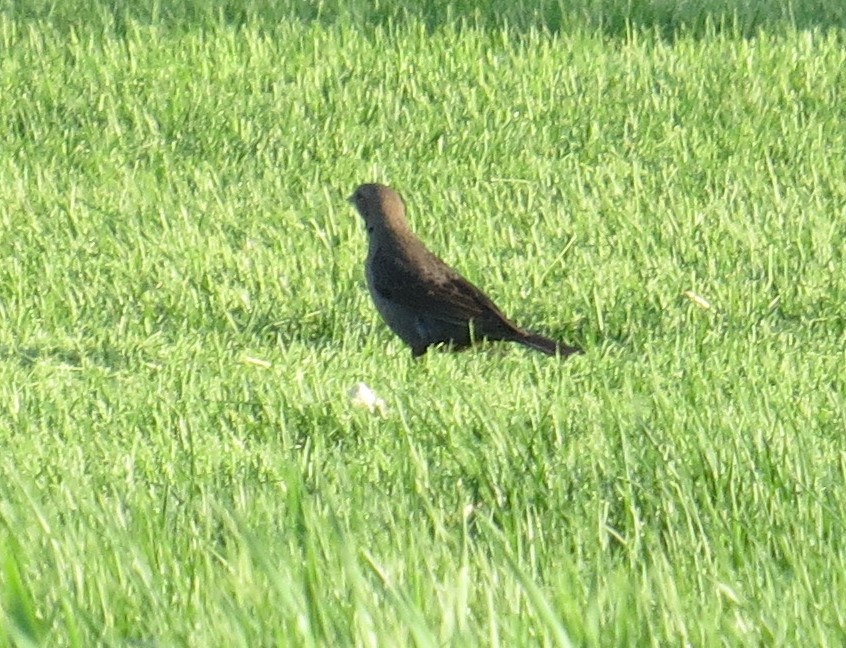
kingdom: Animalia
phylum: Chordata
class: Aves
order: Passeriformes
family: Icteridae
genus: Molothrus
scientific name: Molothrus ater
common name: Brown-headed cowbird
